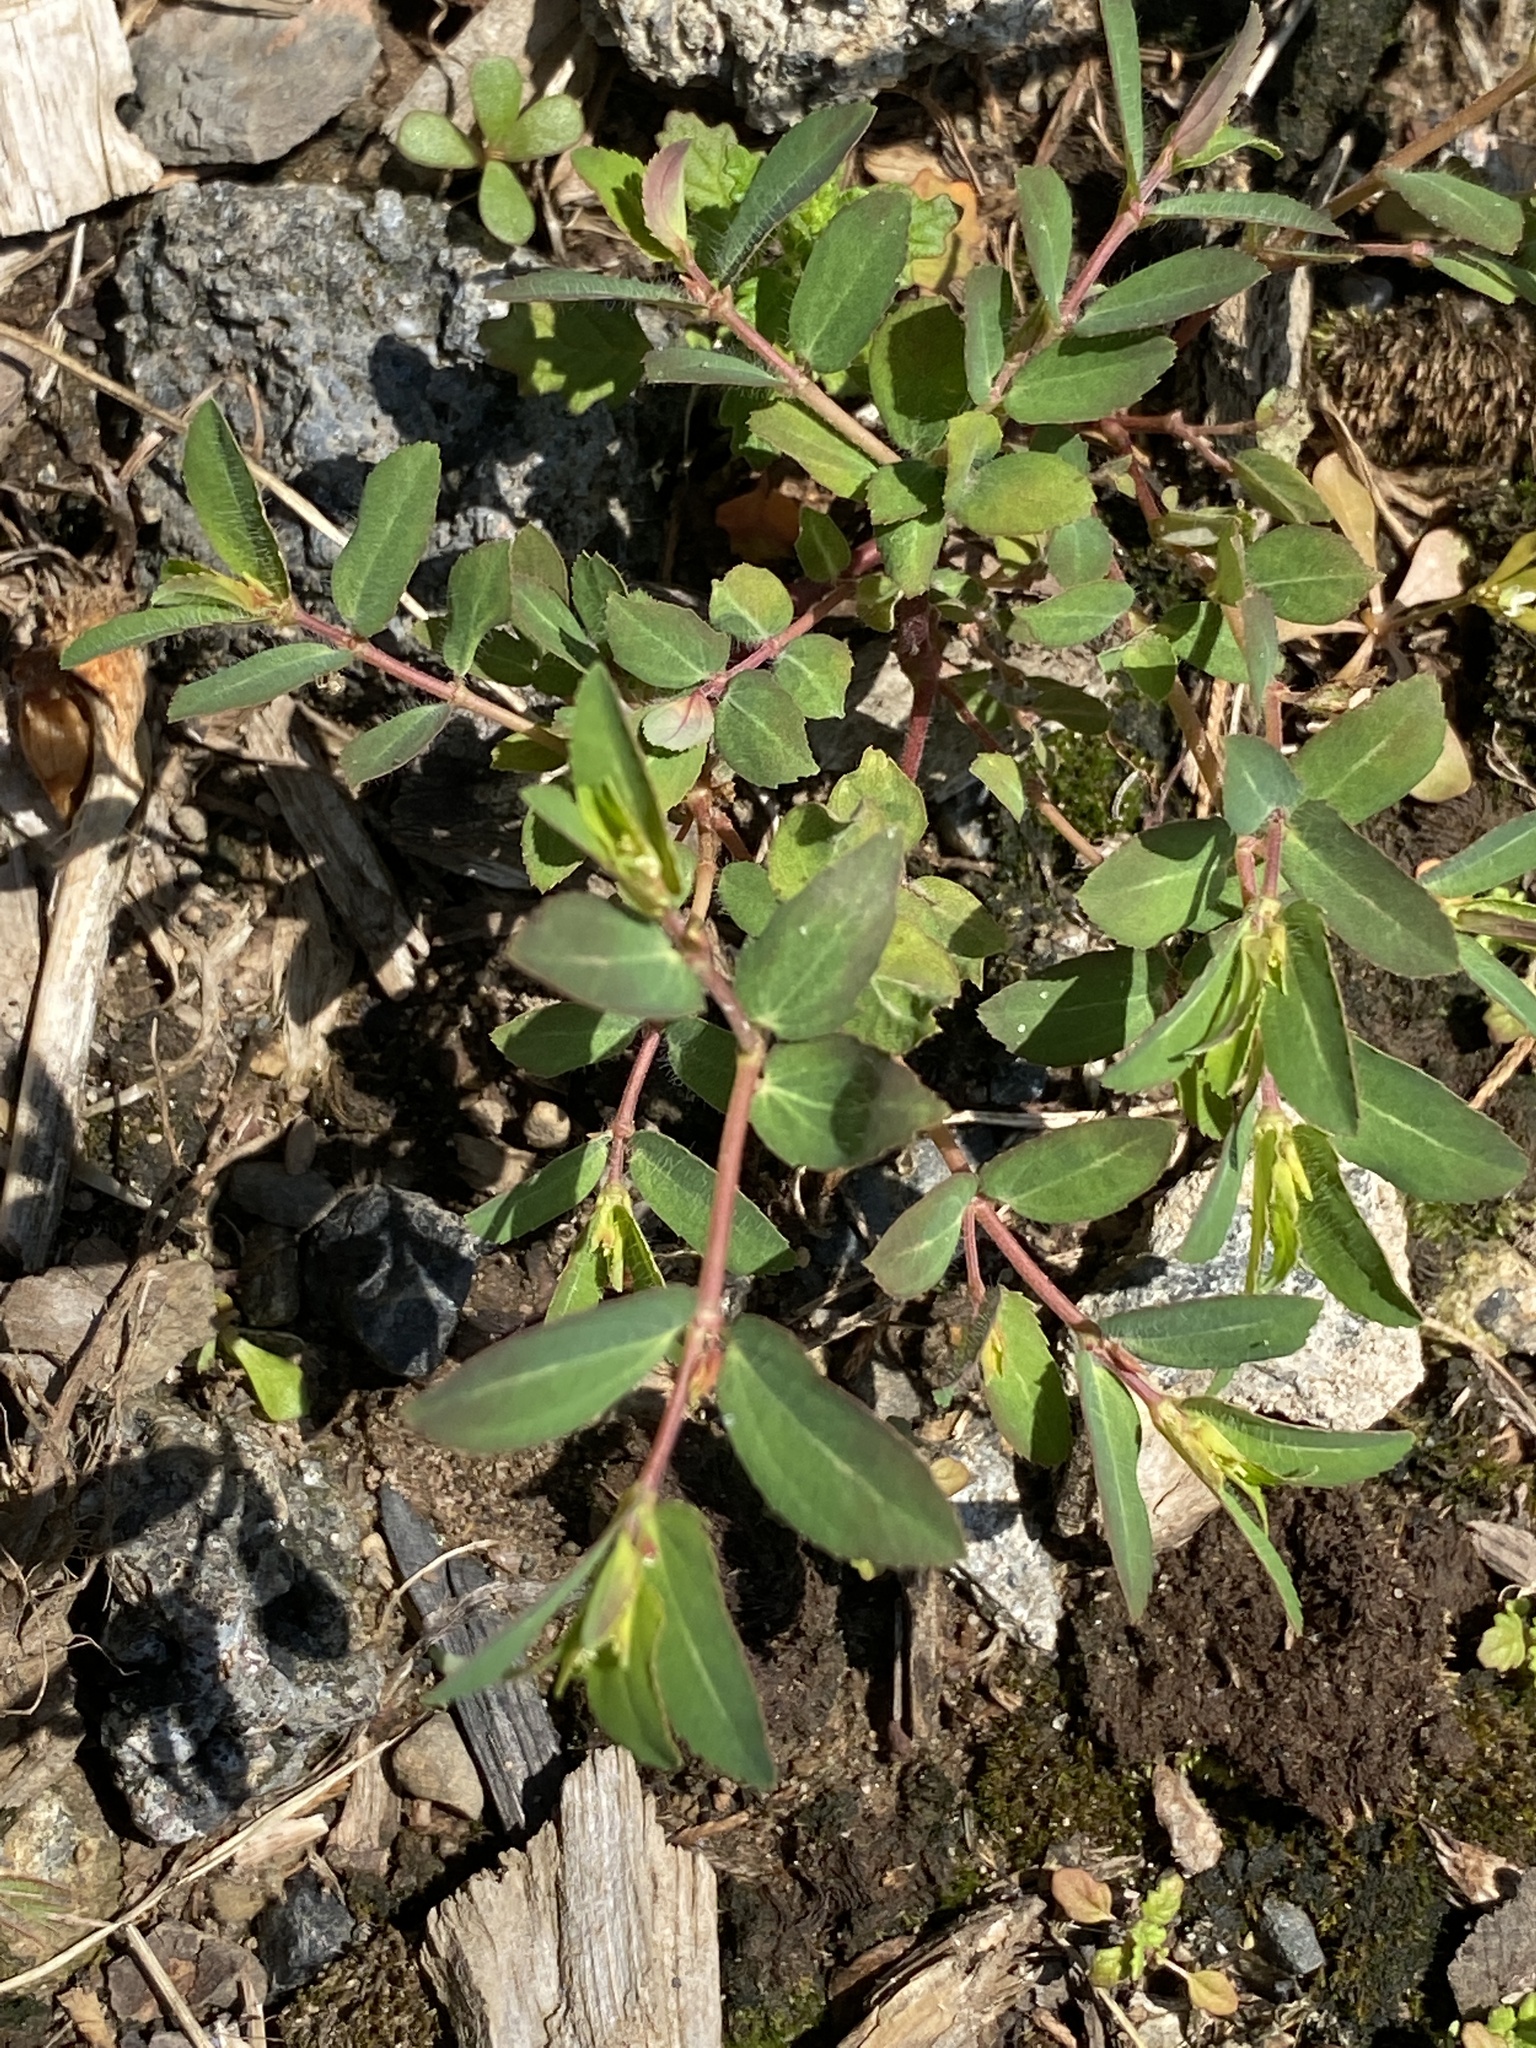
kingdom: Plantae
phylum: Tracheophyta
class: Magnoliopsida
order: Malpighiales
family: Euphorbiaceae
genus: Euphorbia
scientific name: Euphorbia nutans
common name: Eyebane
